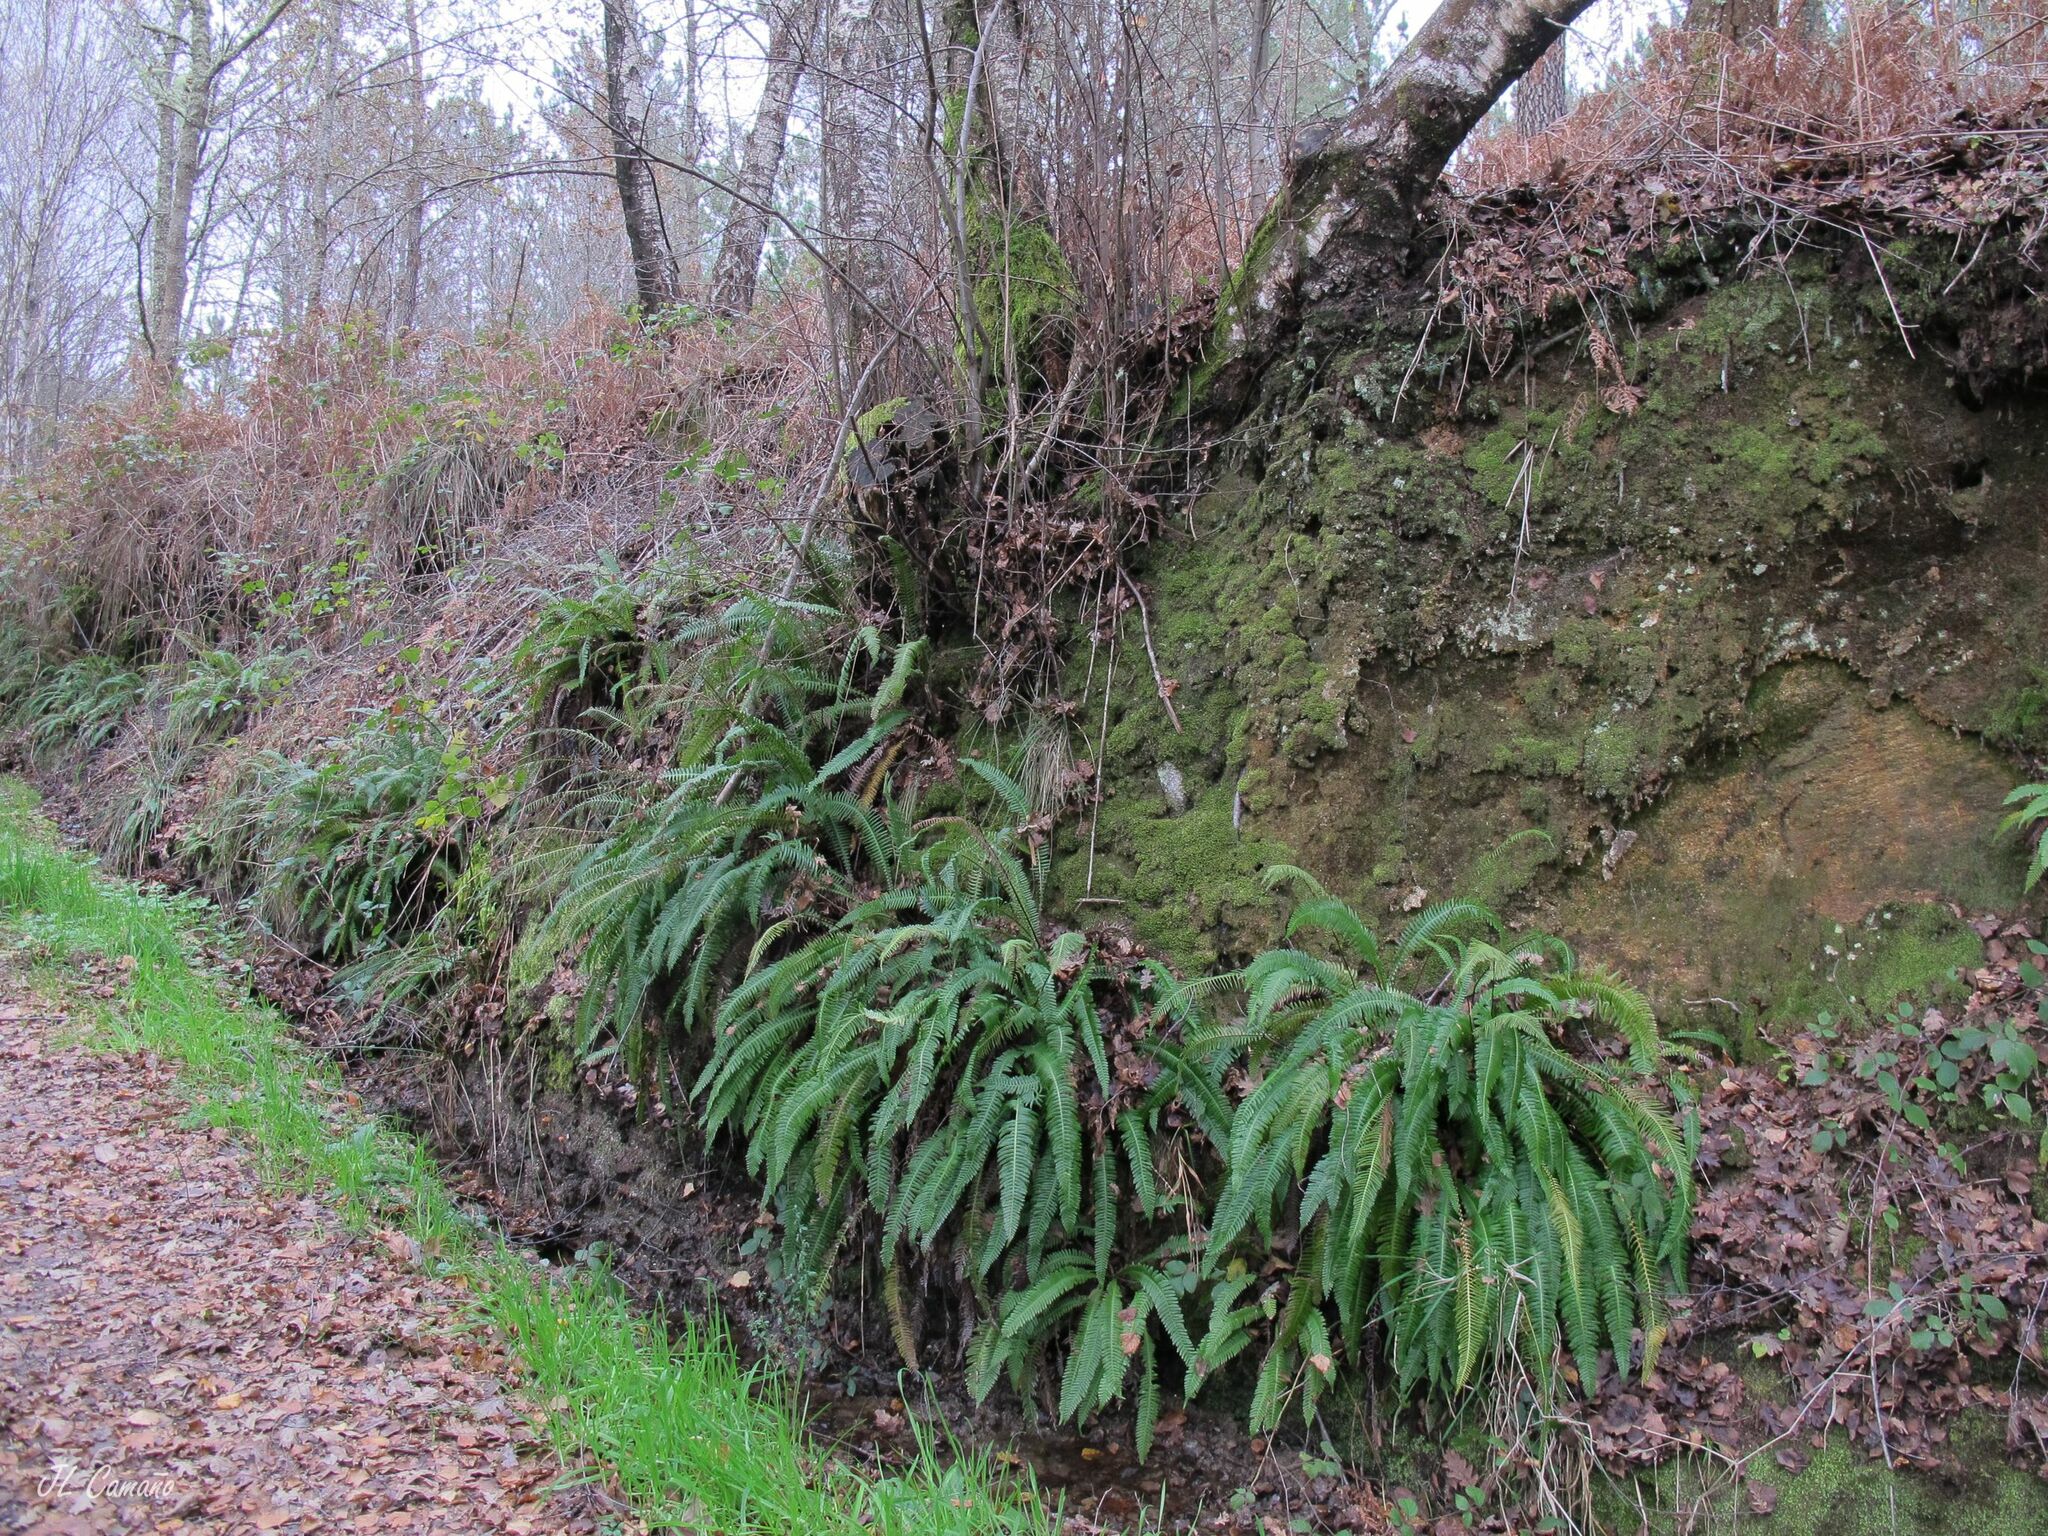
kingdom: Plantae
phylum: Bryophyta
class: Bryopsida
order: Dicranales
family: Dicranellaceae
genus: Dicranella
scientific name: Dicranella heteromalla
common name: Silky forklet moss
